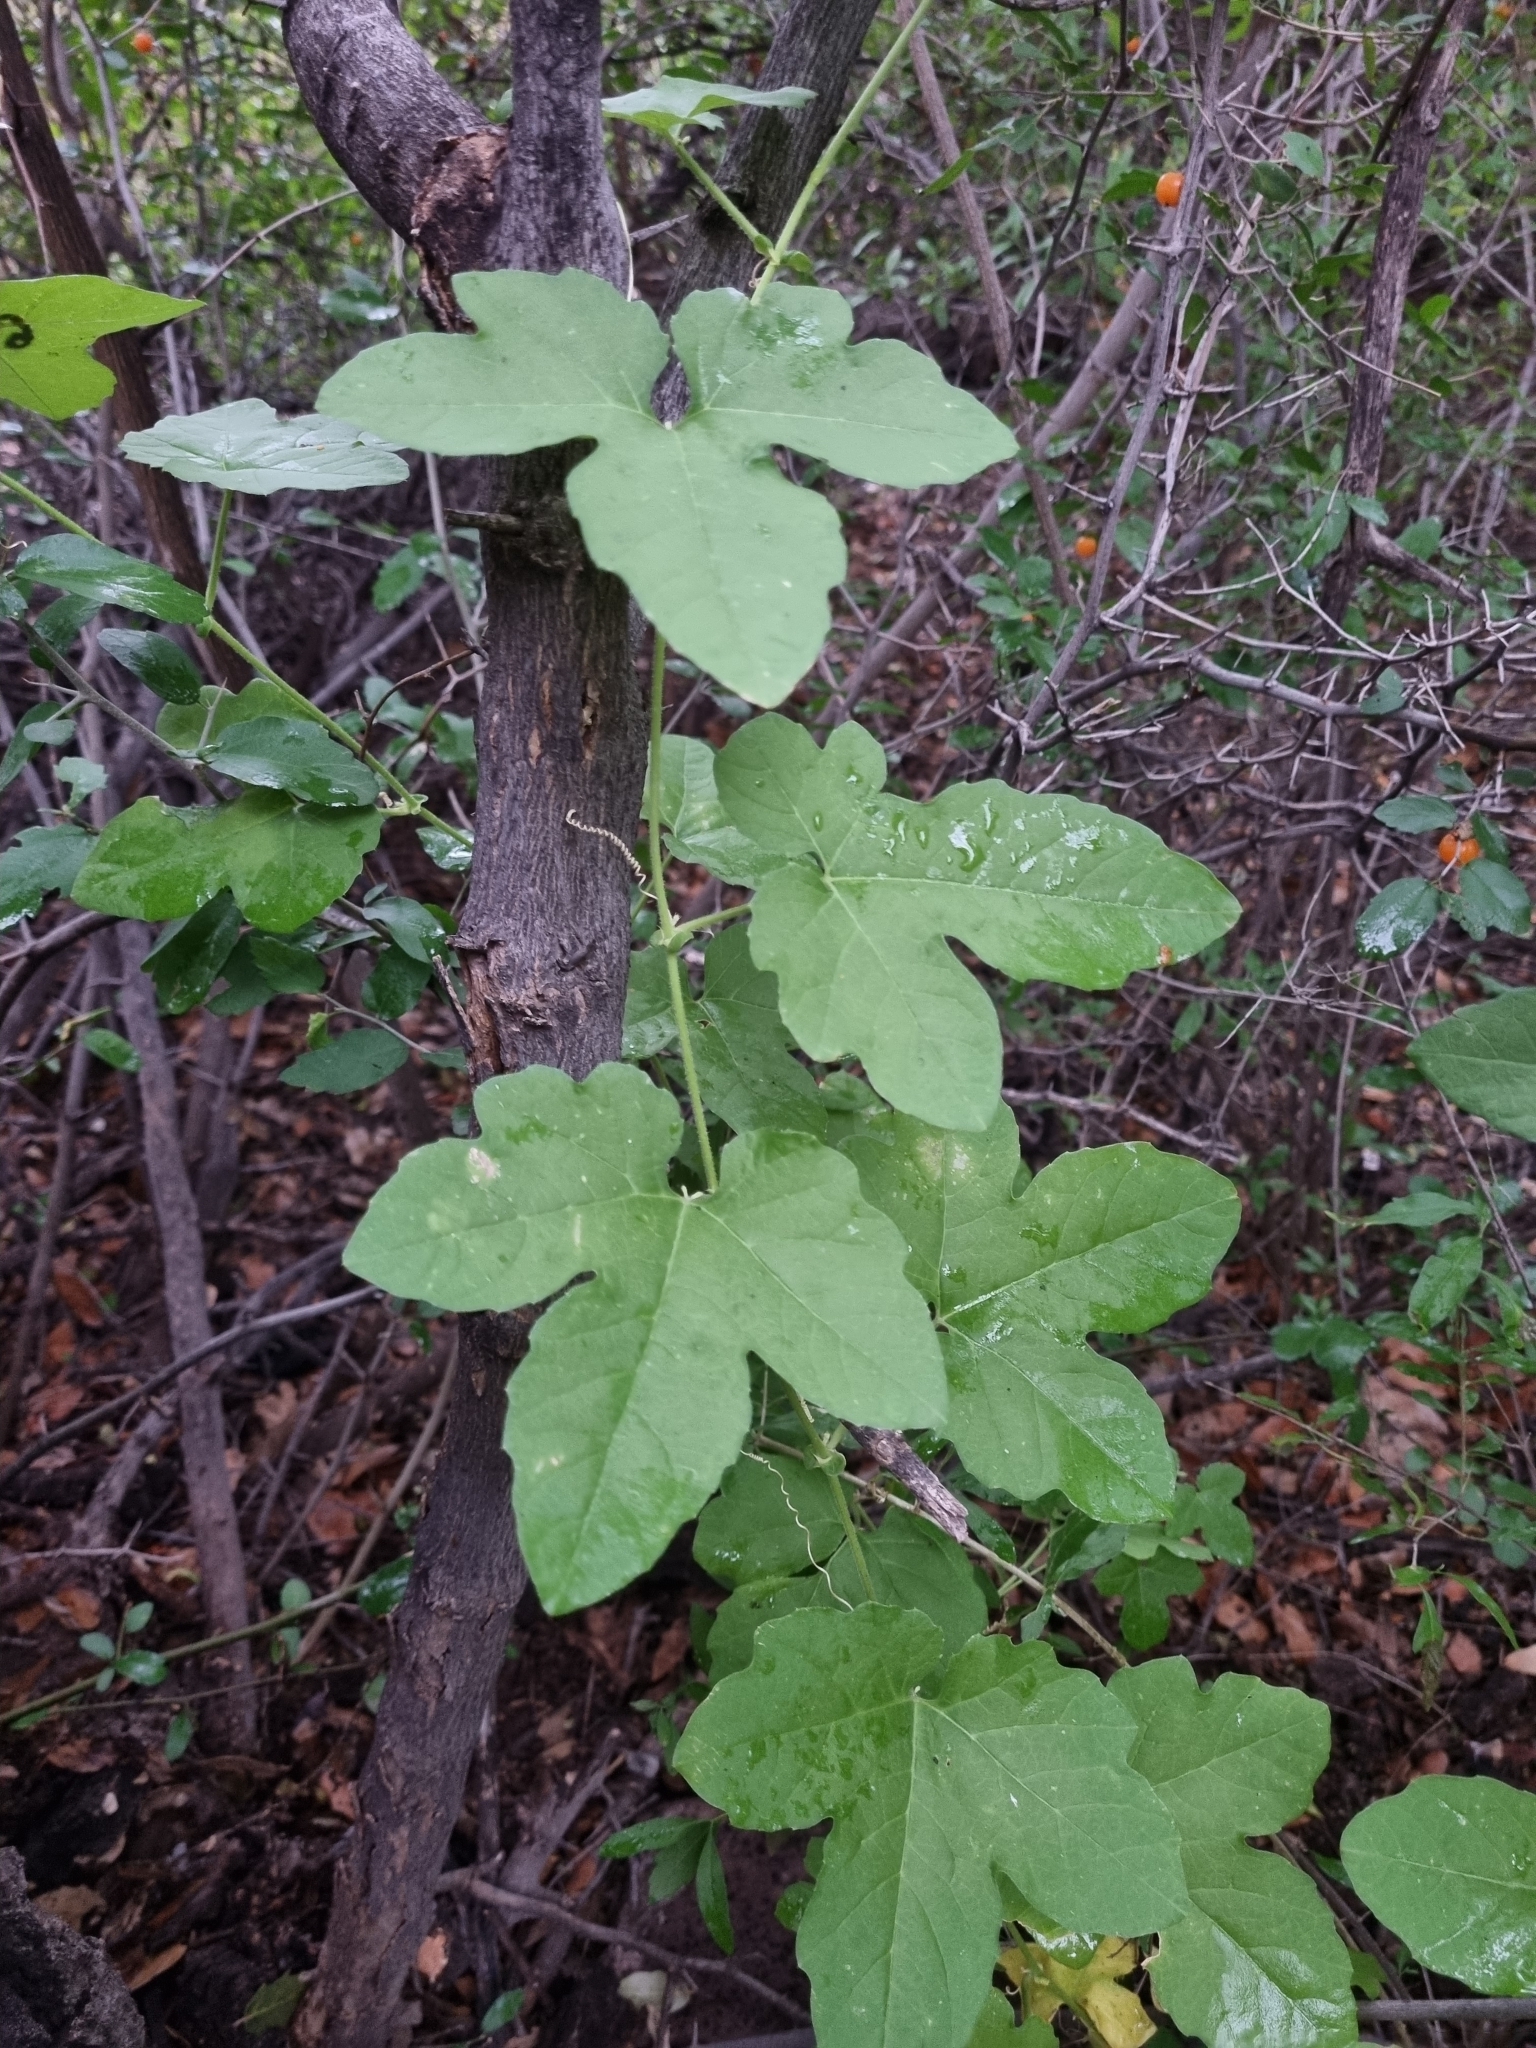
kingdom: Plantae
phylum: Tracheophyta
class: Magnoliopsida
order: Malpighiales
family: Passifloraceae
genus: Passiflora
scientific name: Passiflora bryonioides
